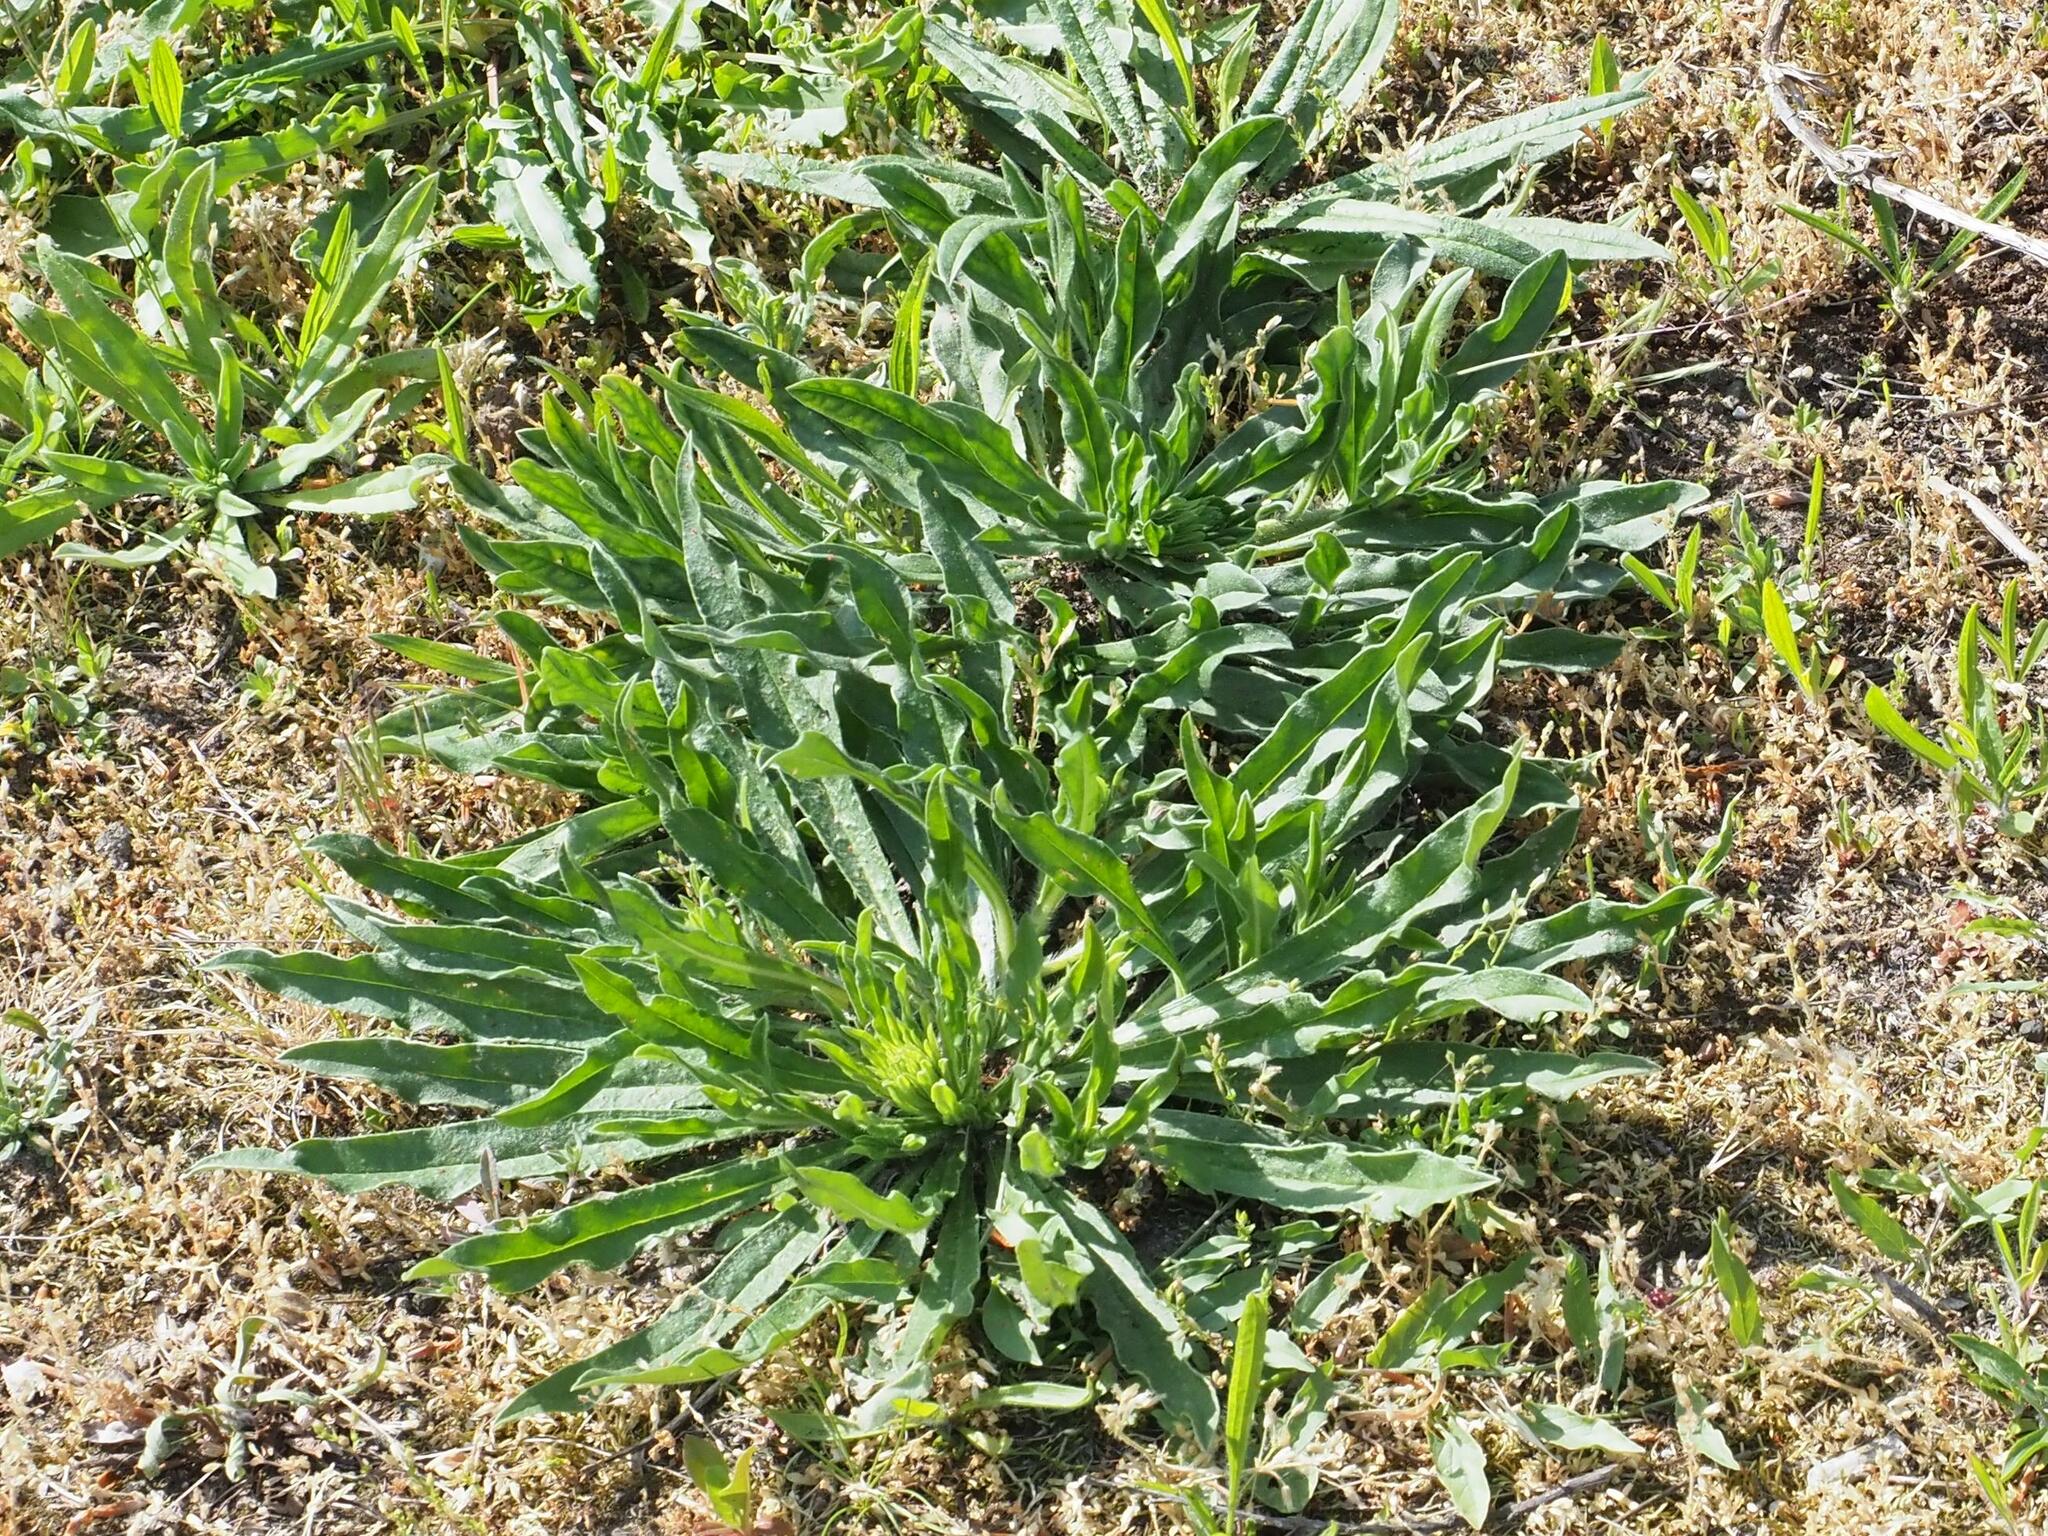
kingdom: Plantae
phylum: Tracheophyta
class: Magnoliopsida
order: Boraginales
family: Boraginaceae
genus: Echium
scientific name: Echium vulgare
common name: Common viper's bugloss
